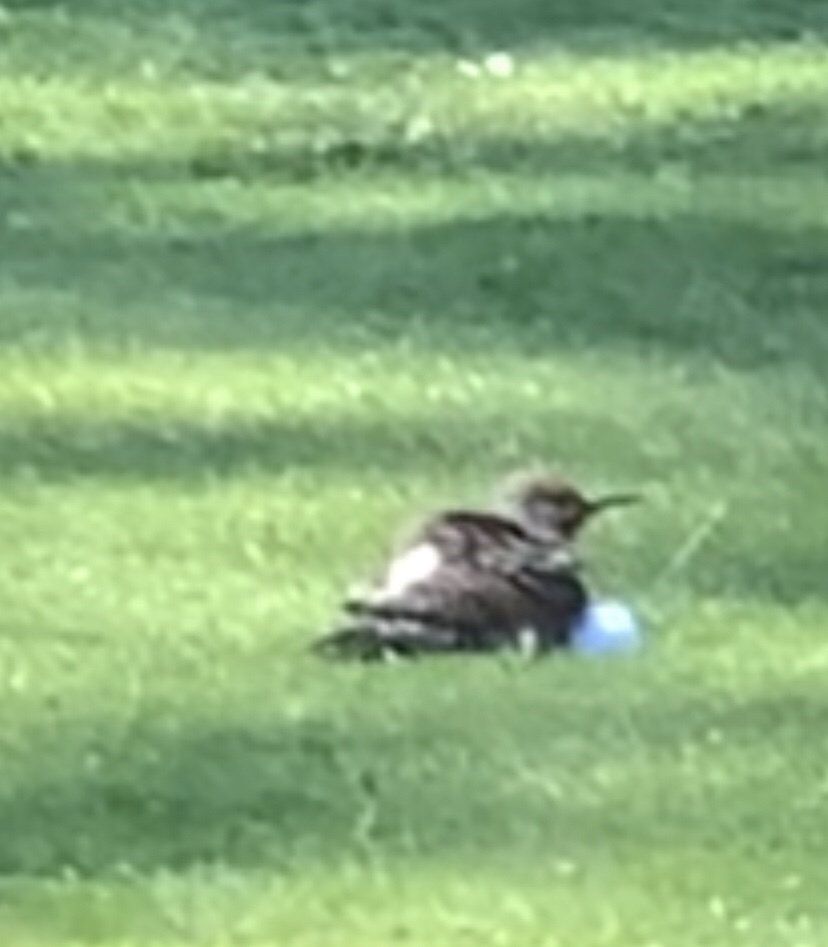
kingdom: Animalia
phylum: Chordata
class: Aves
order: Piciformes
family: Picidae
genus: Colaptes
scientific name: Colaptes auratus
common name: Northern flicker
